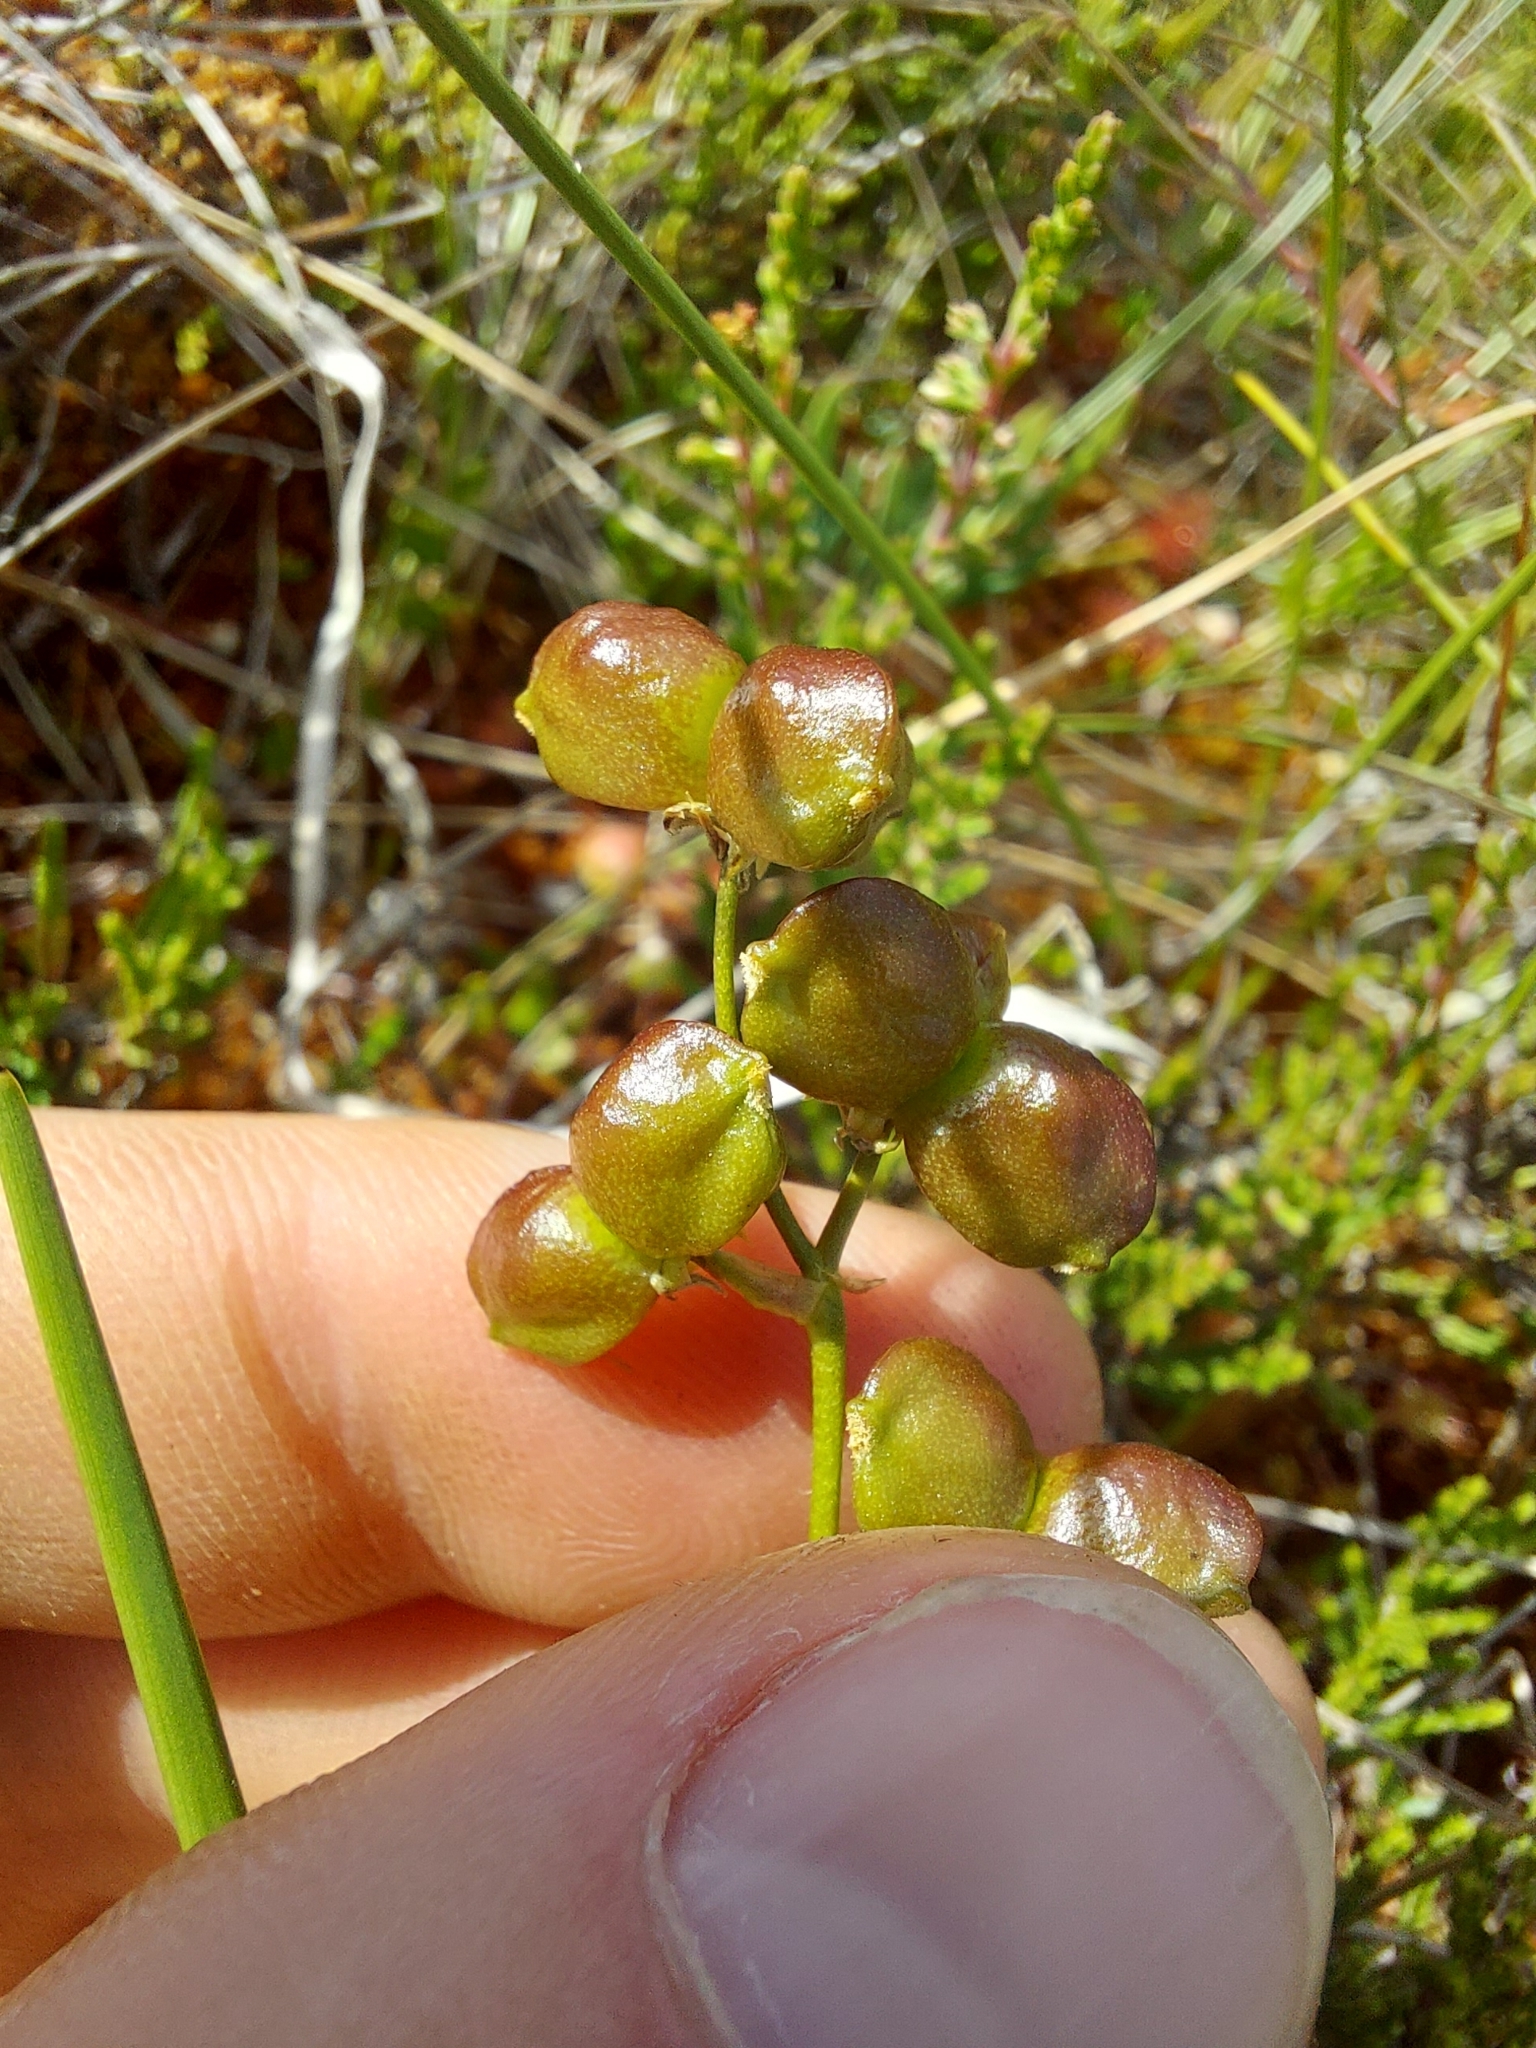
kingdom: Plantae
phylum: Tracheophyta
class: Liliopsida
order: Alismatales
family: Scheuchzeriaceae
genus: Scheuchzeria
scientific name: Scheuchzeria palustris
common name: Rannoch-rush
